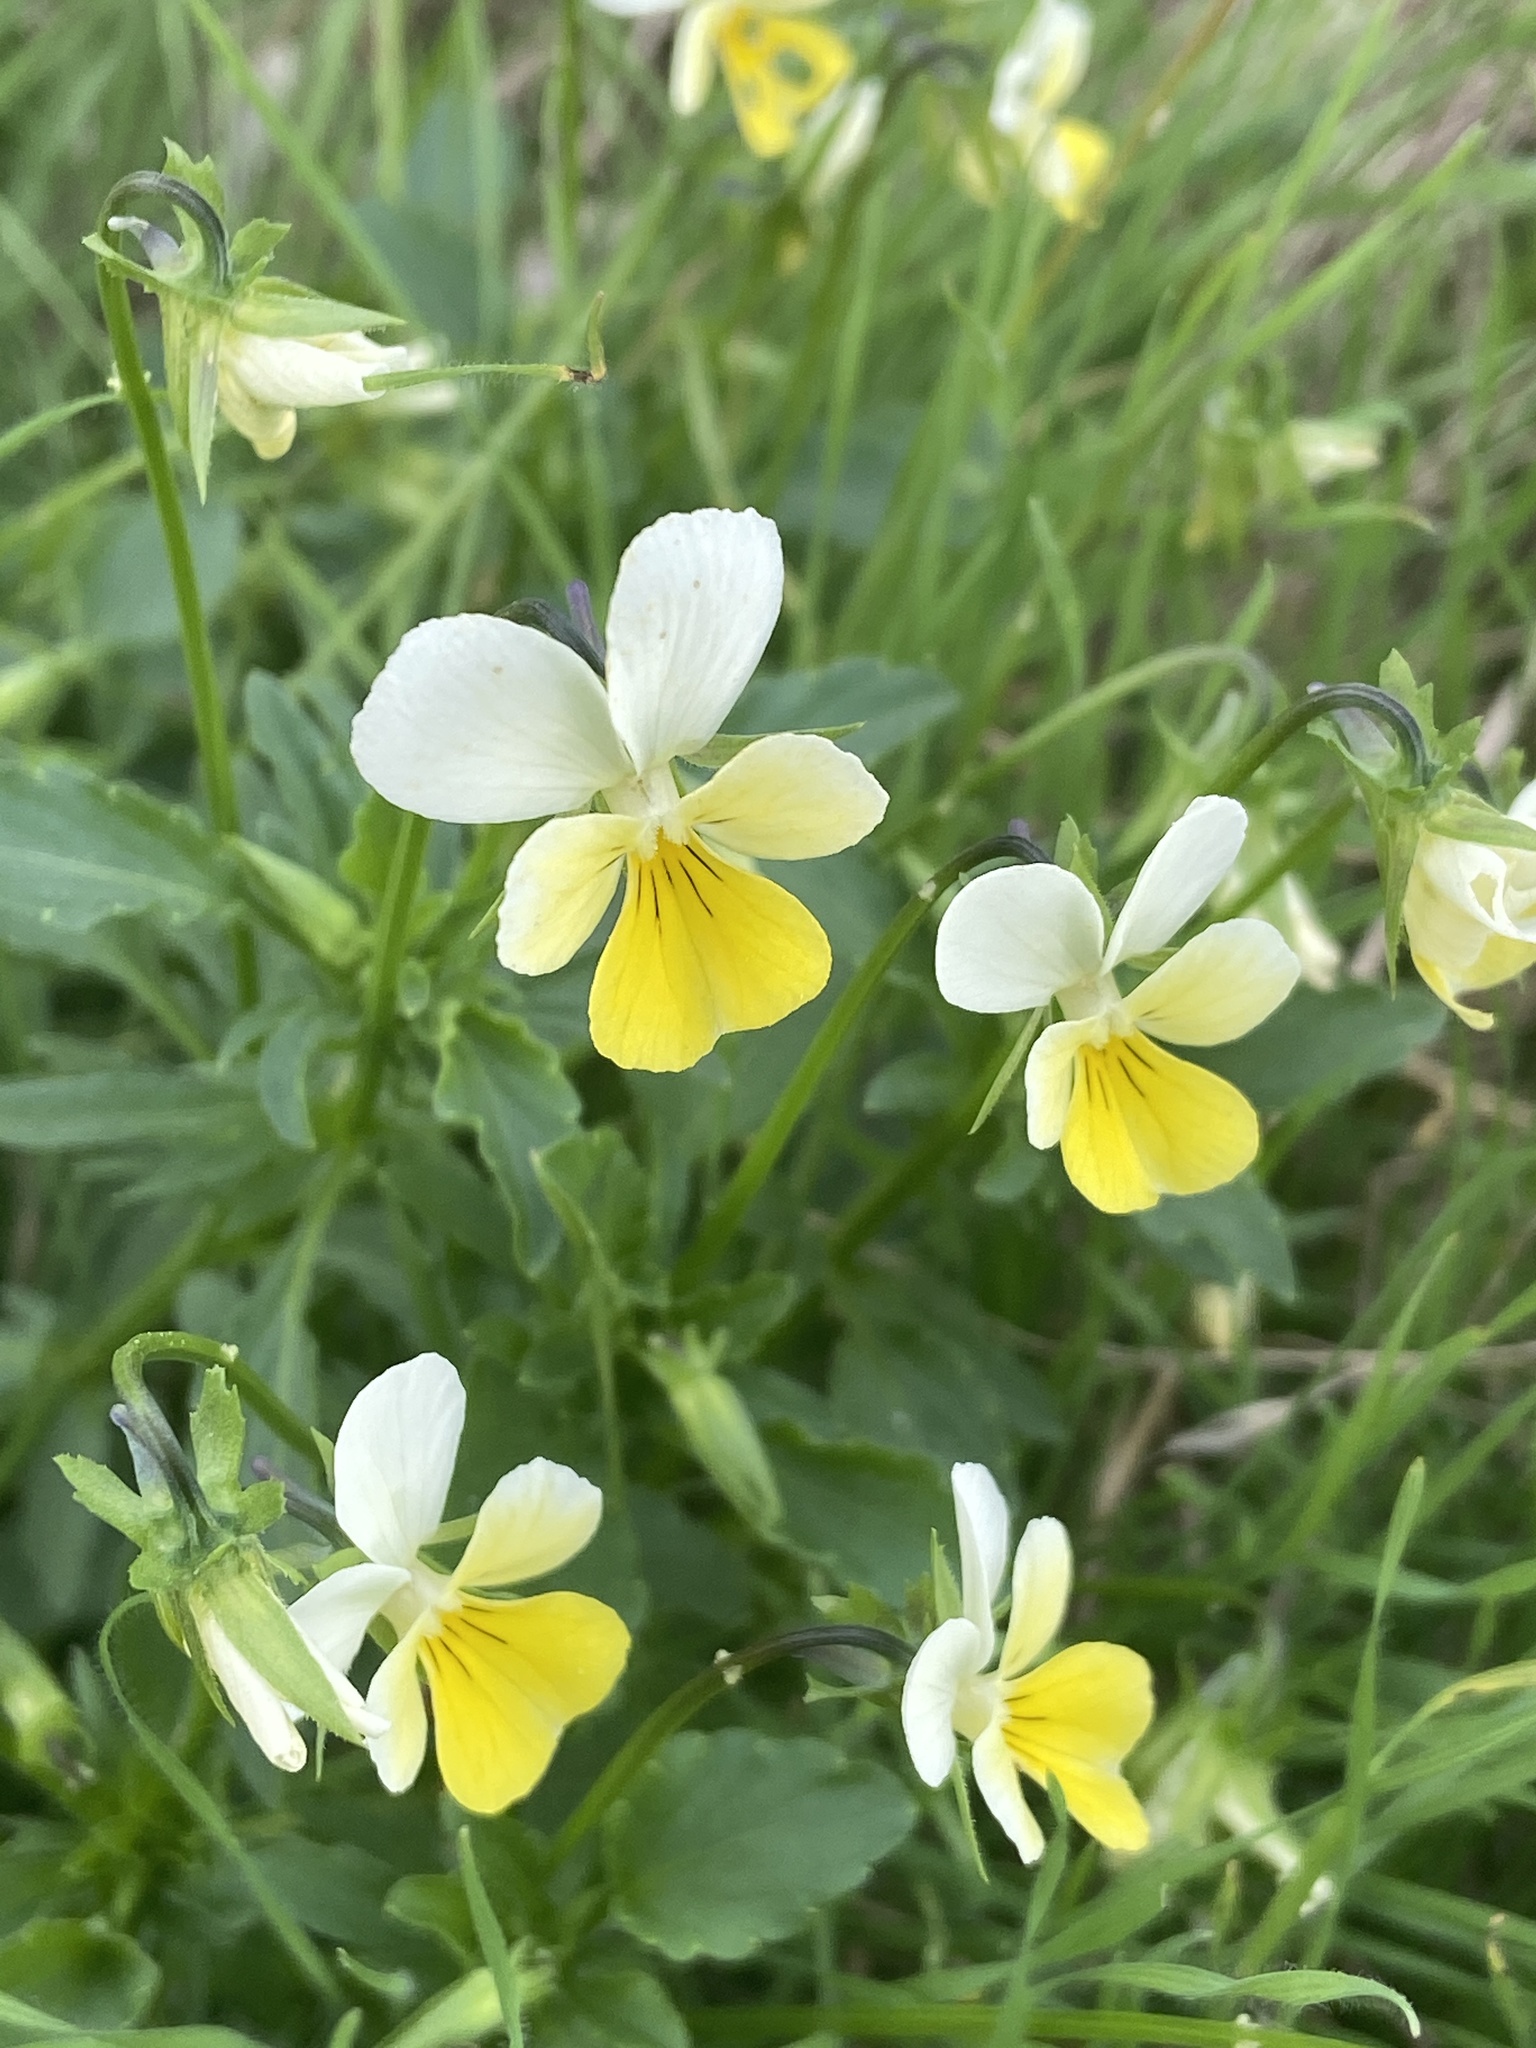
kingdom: Plantae
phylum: Tracheophyta
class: Magnoliopsida
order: Malpighiales
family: Violaceae
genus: Viola
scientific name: Viola tricolor
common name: Pansy
